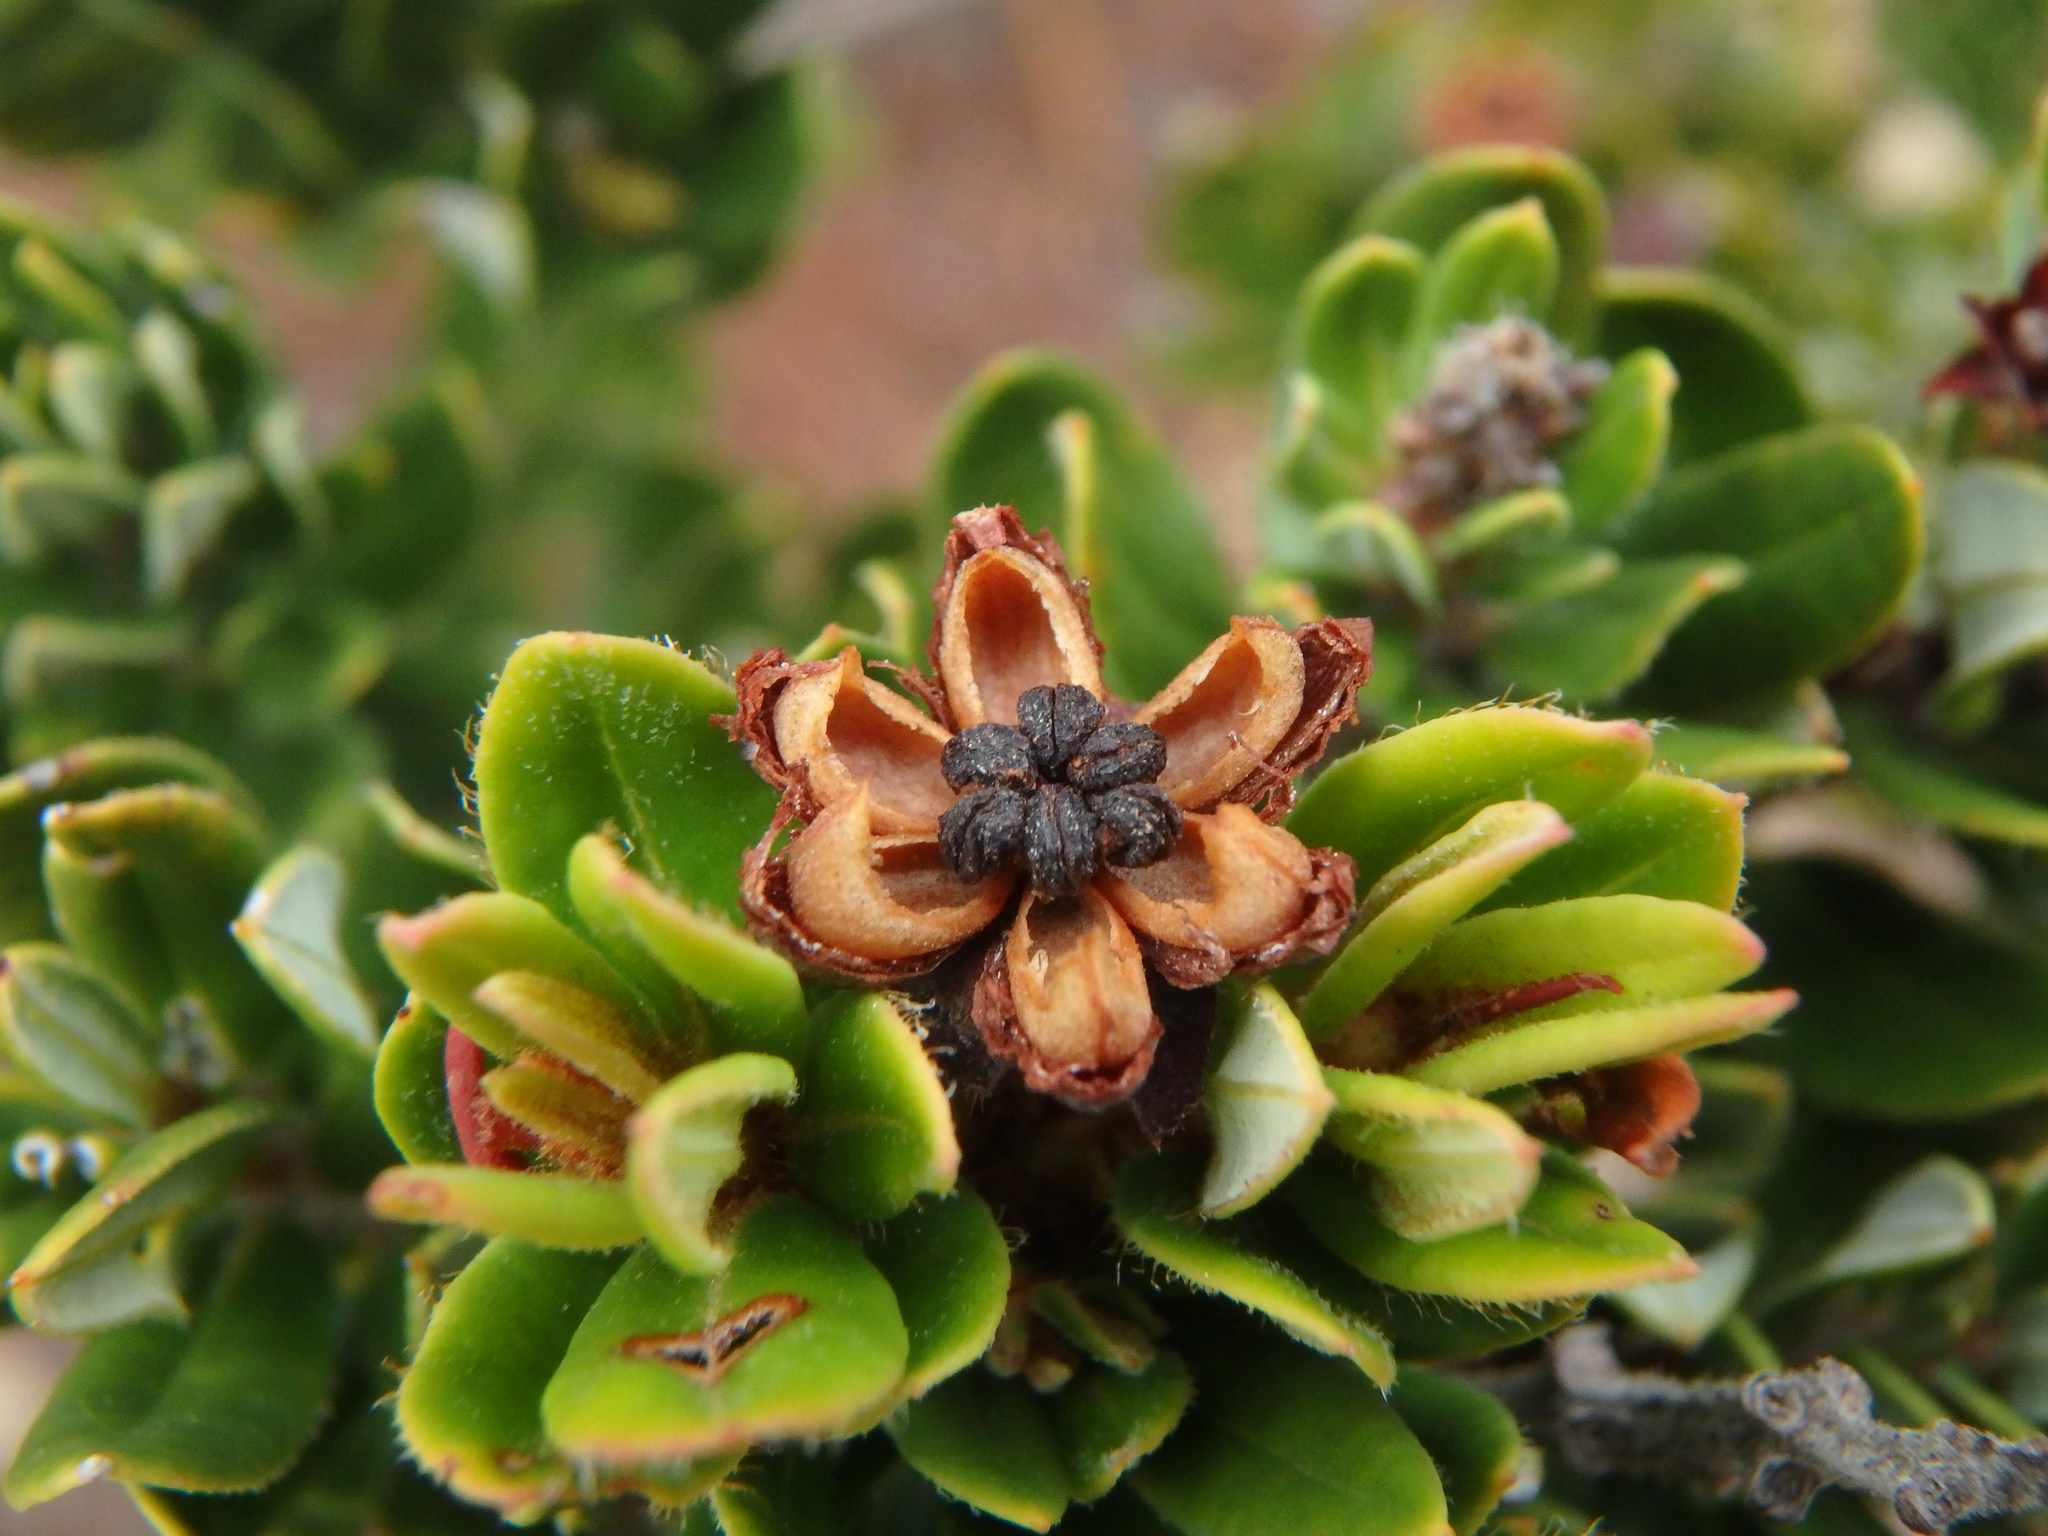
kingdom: Plantae
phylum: Tracheophyta
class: Magnoliopsida
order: Ericales
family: Ericaceae
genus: Bejaria
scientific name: Bejaria resinosa
